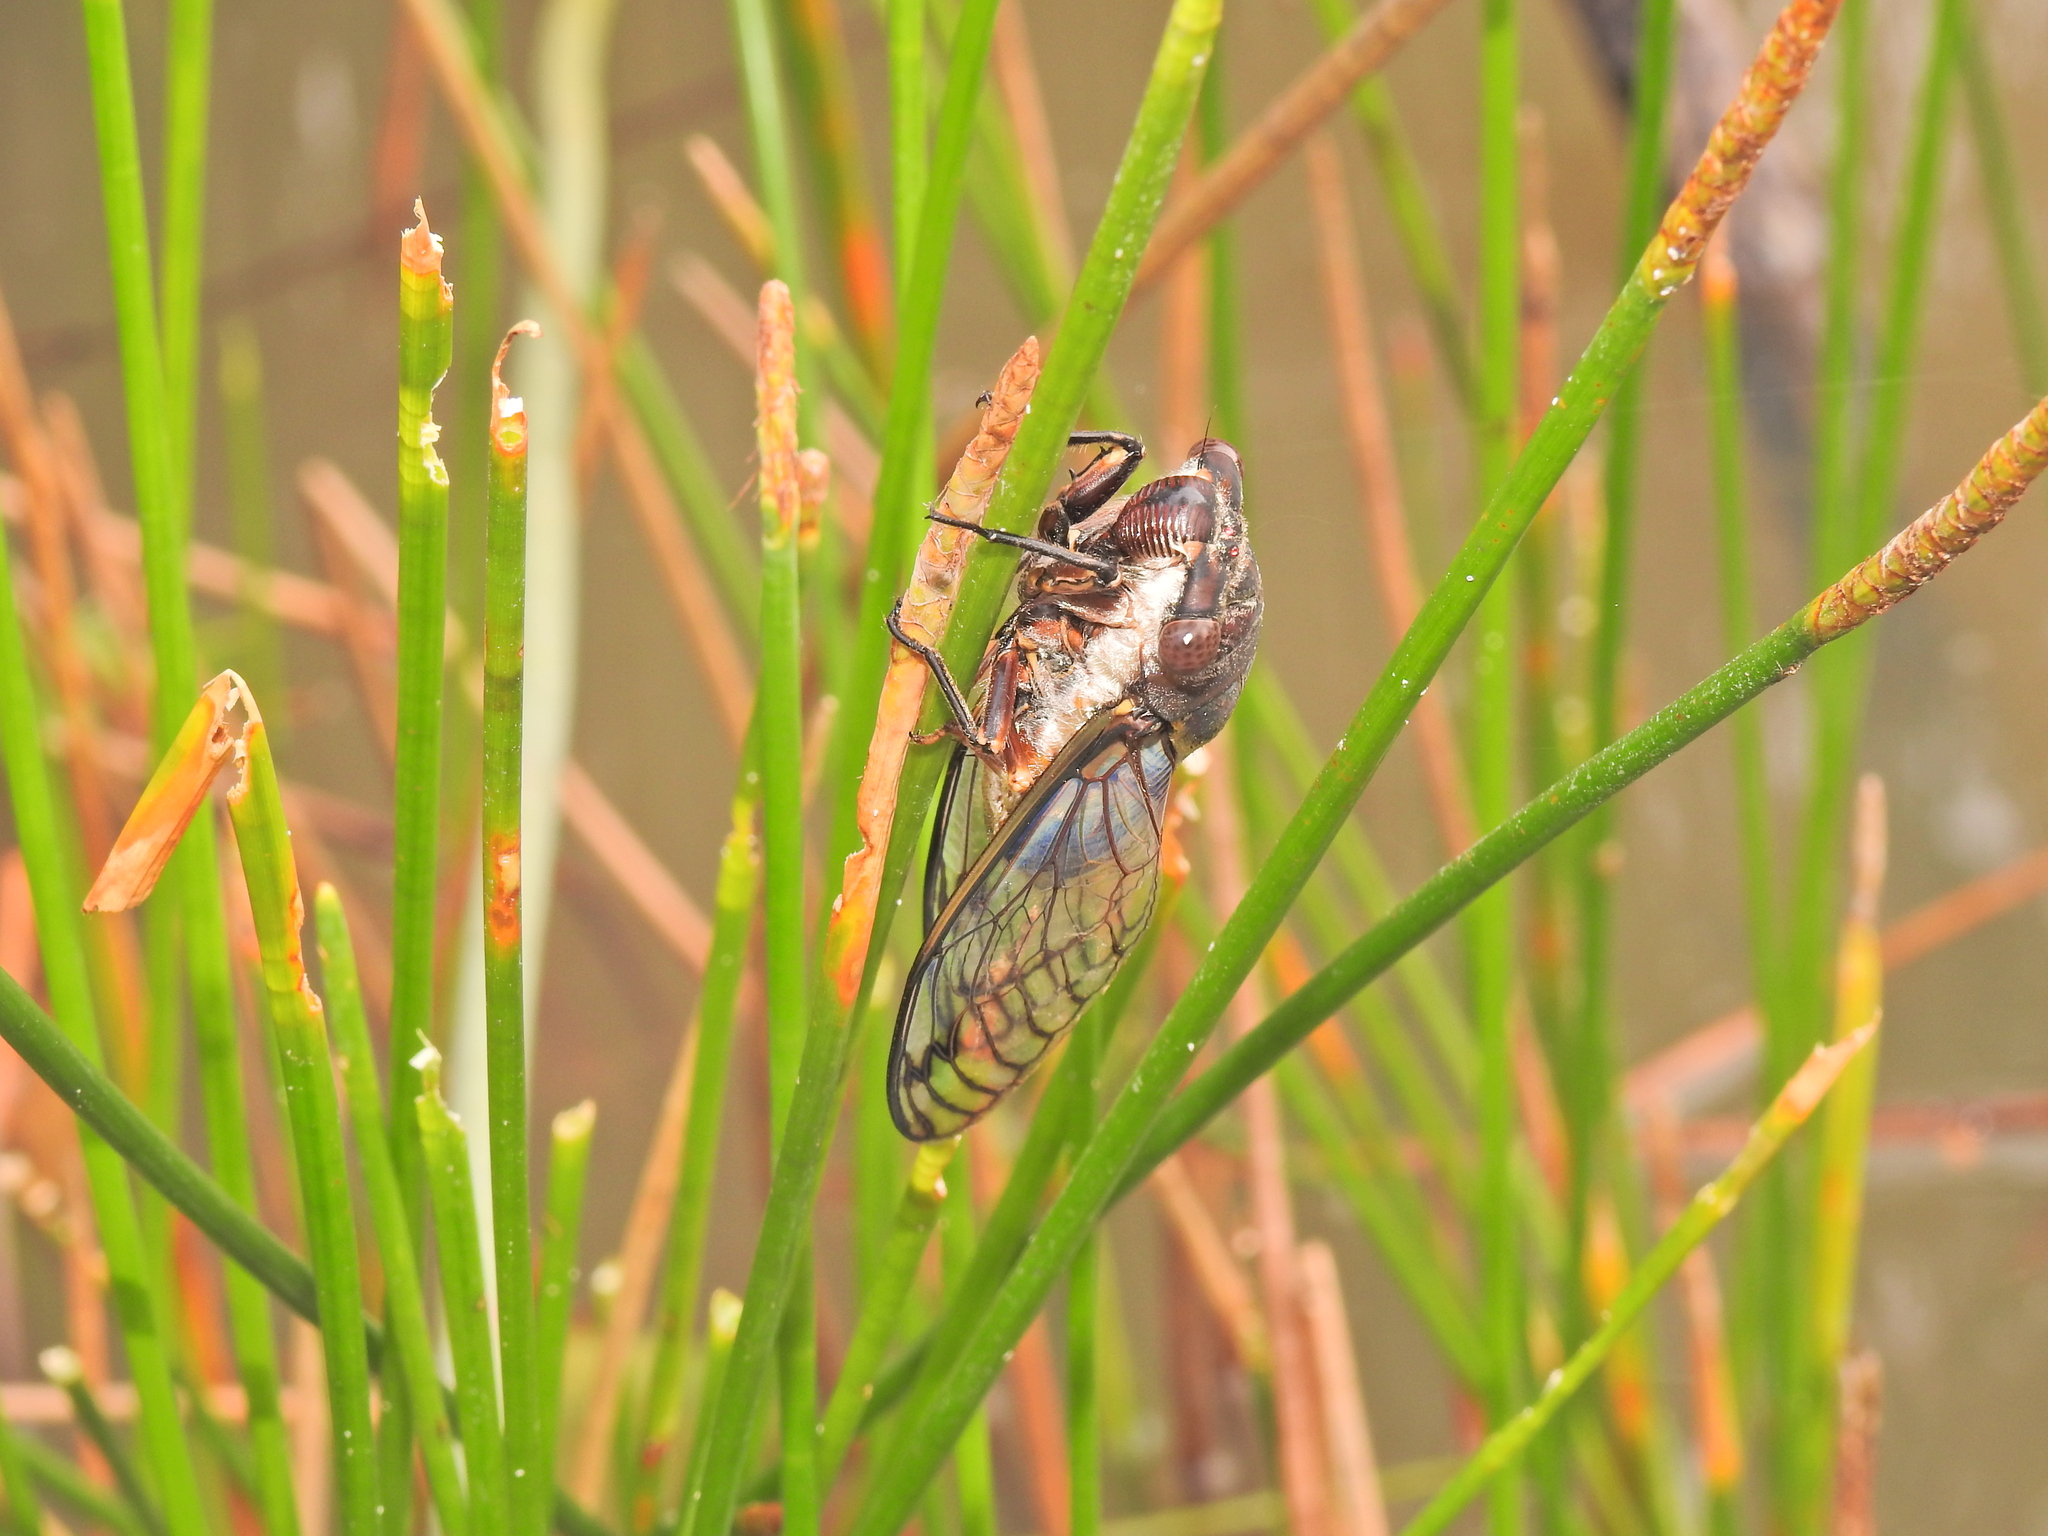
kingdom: Animalia
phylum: Arthropoda
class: Insecta
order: Hemiptera
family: Cicadidae
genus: Psaltoda
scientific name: Psaltoda pictibasis
